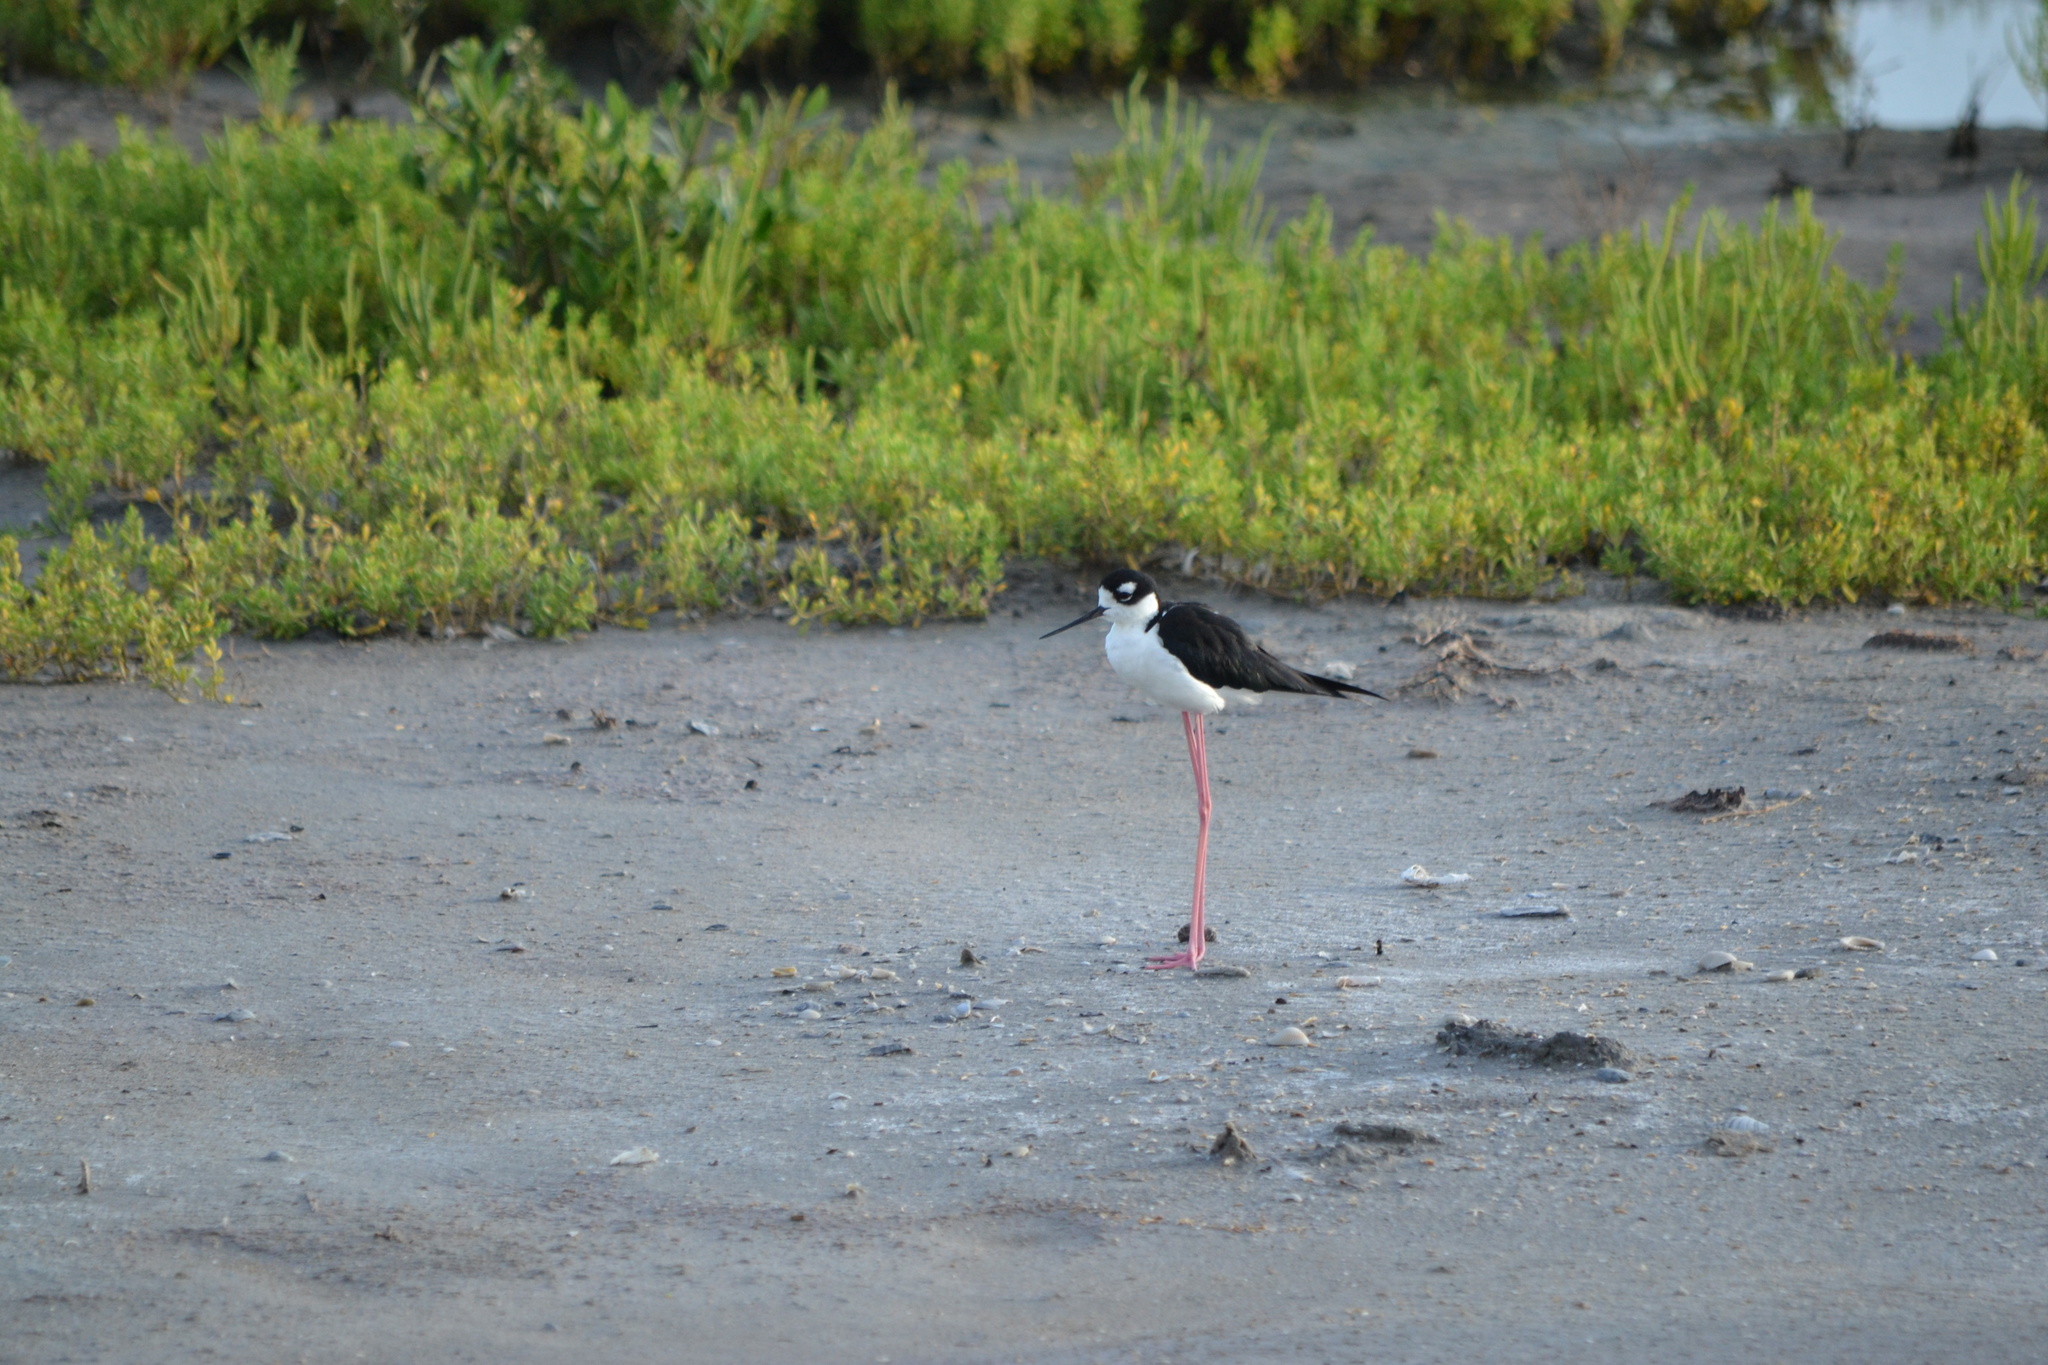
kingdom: Animalia
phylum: Chordata
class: Aves
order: Charadriiformes
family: Recurvirostridae
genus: Himantopus
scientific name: Himantopus mexicanus
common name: Black-necked stilt
